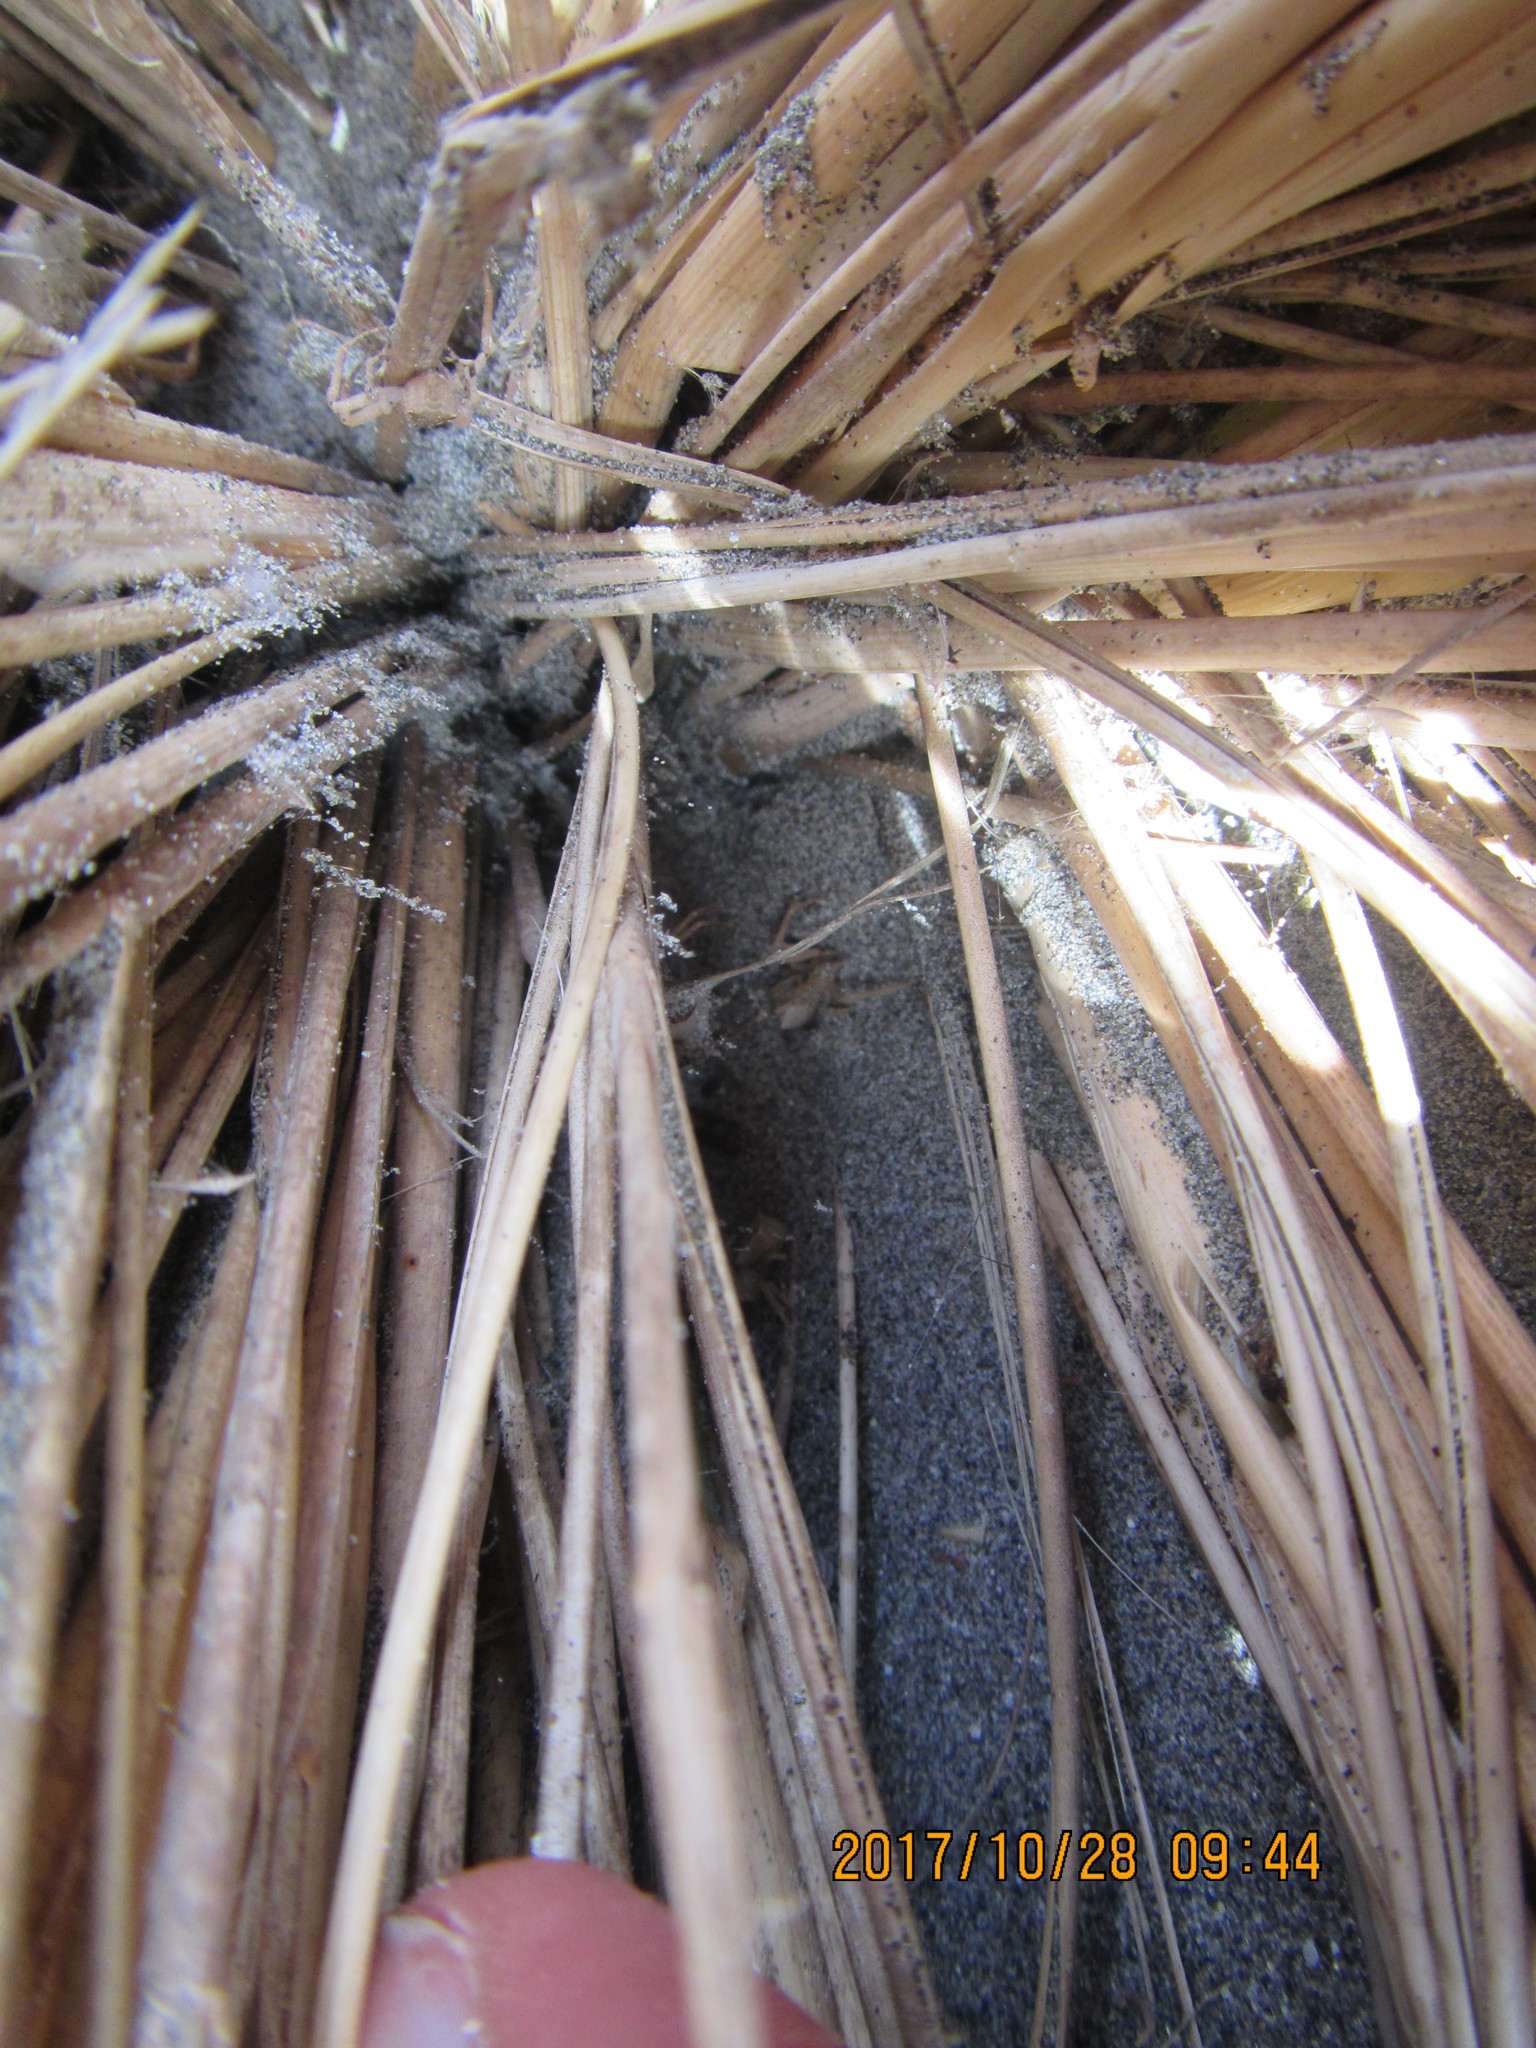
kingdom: Animalia
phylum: Arthropoda
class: Arachnida
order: Araneae
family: Thomisidae
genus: Sidymella
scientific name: Sidymella trapezia
